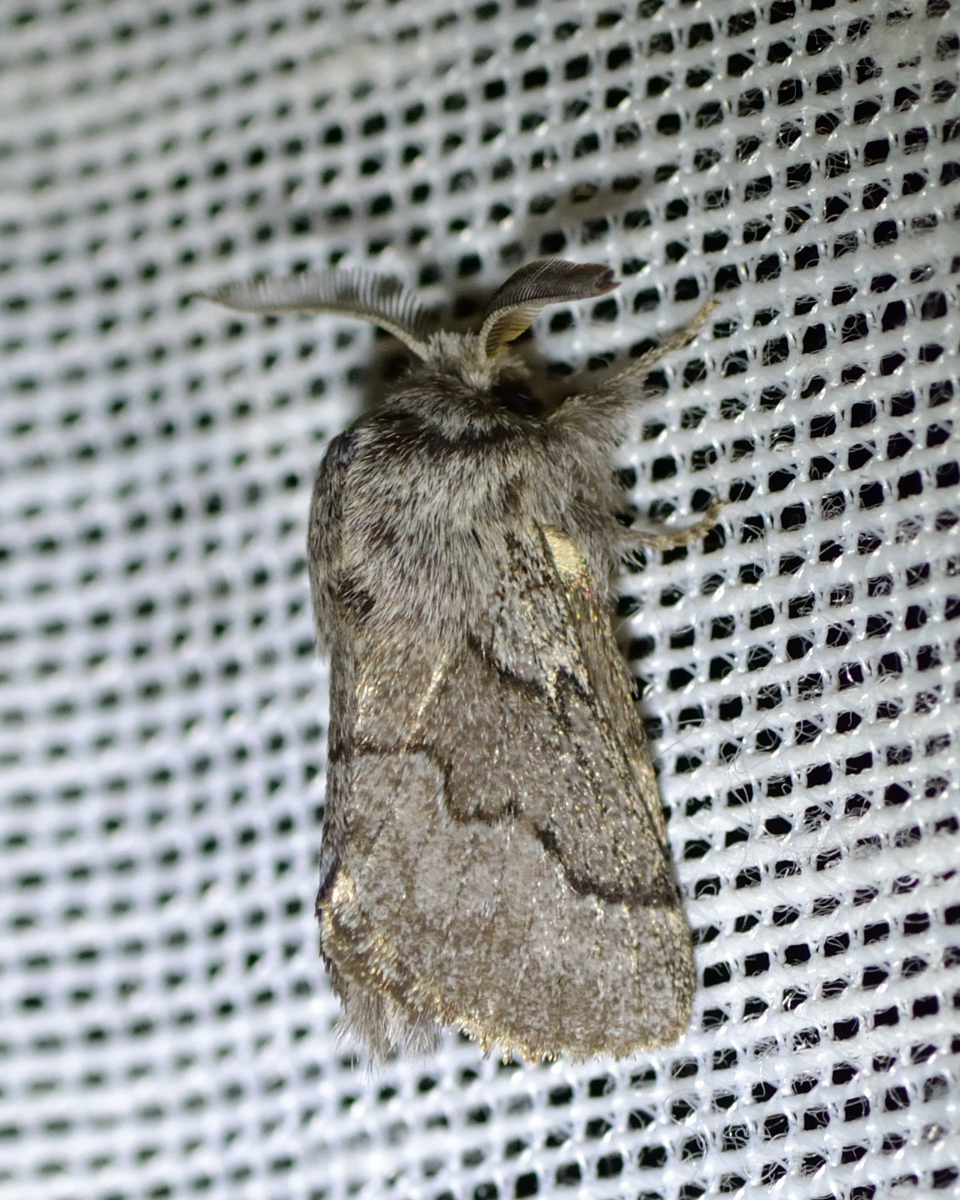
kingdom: Animalia
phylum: Arthropoda
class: Insecta
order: Lepidoptera
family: Lasiocampidae
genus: Trichiura
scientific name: Trichiura crataegi
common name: Pale eggar
